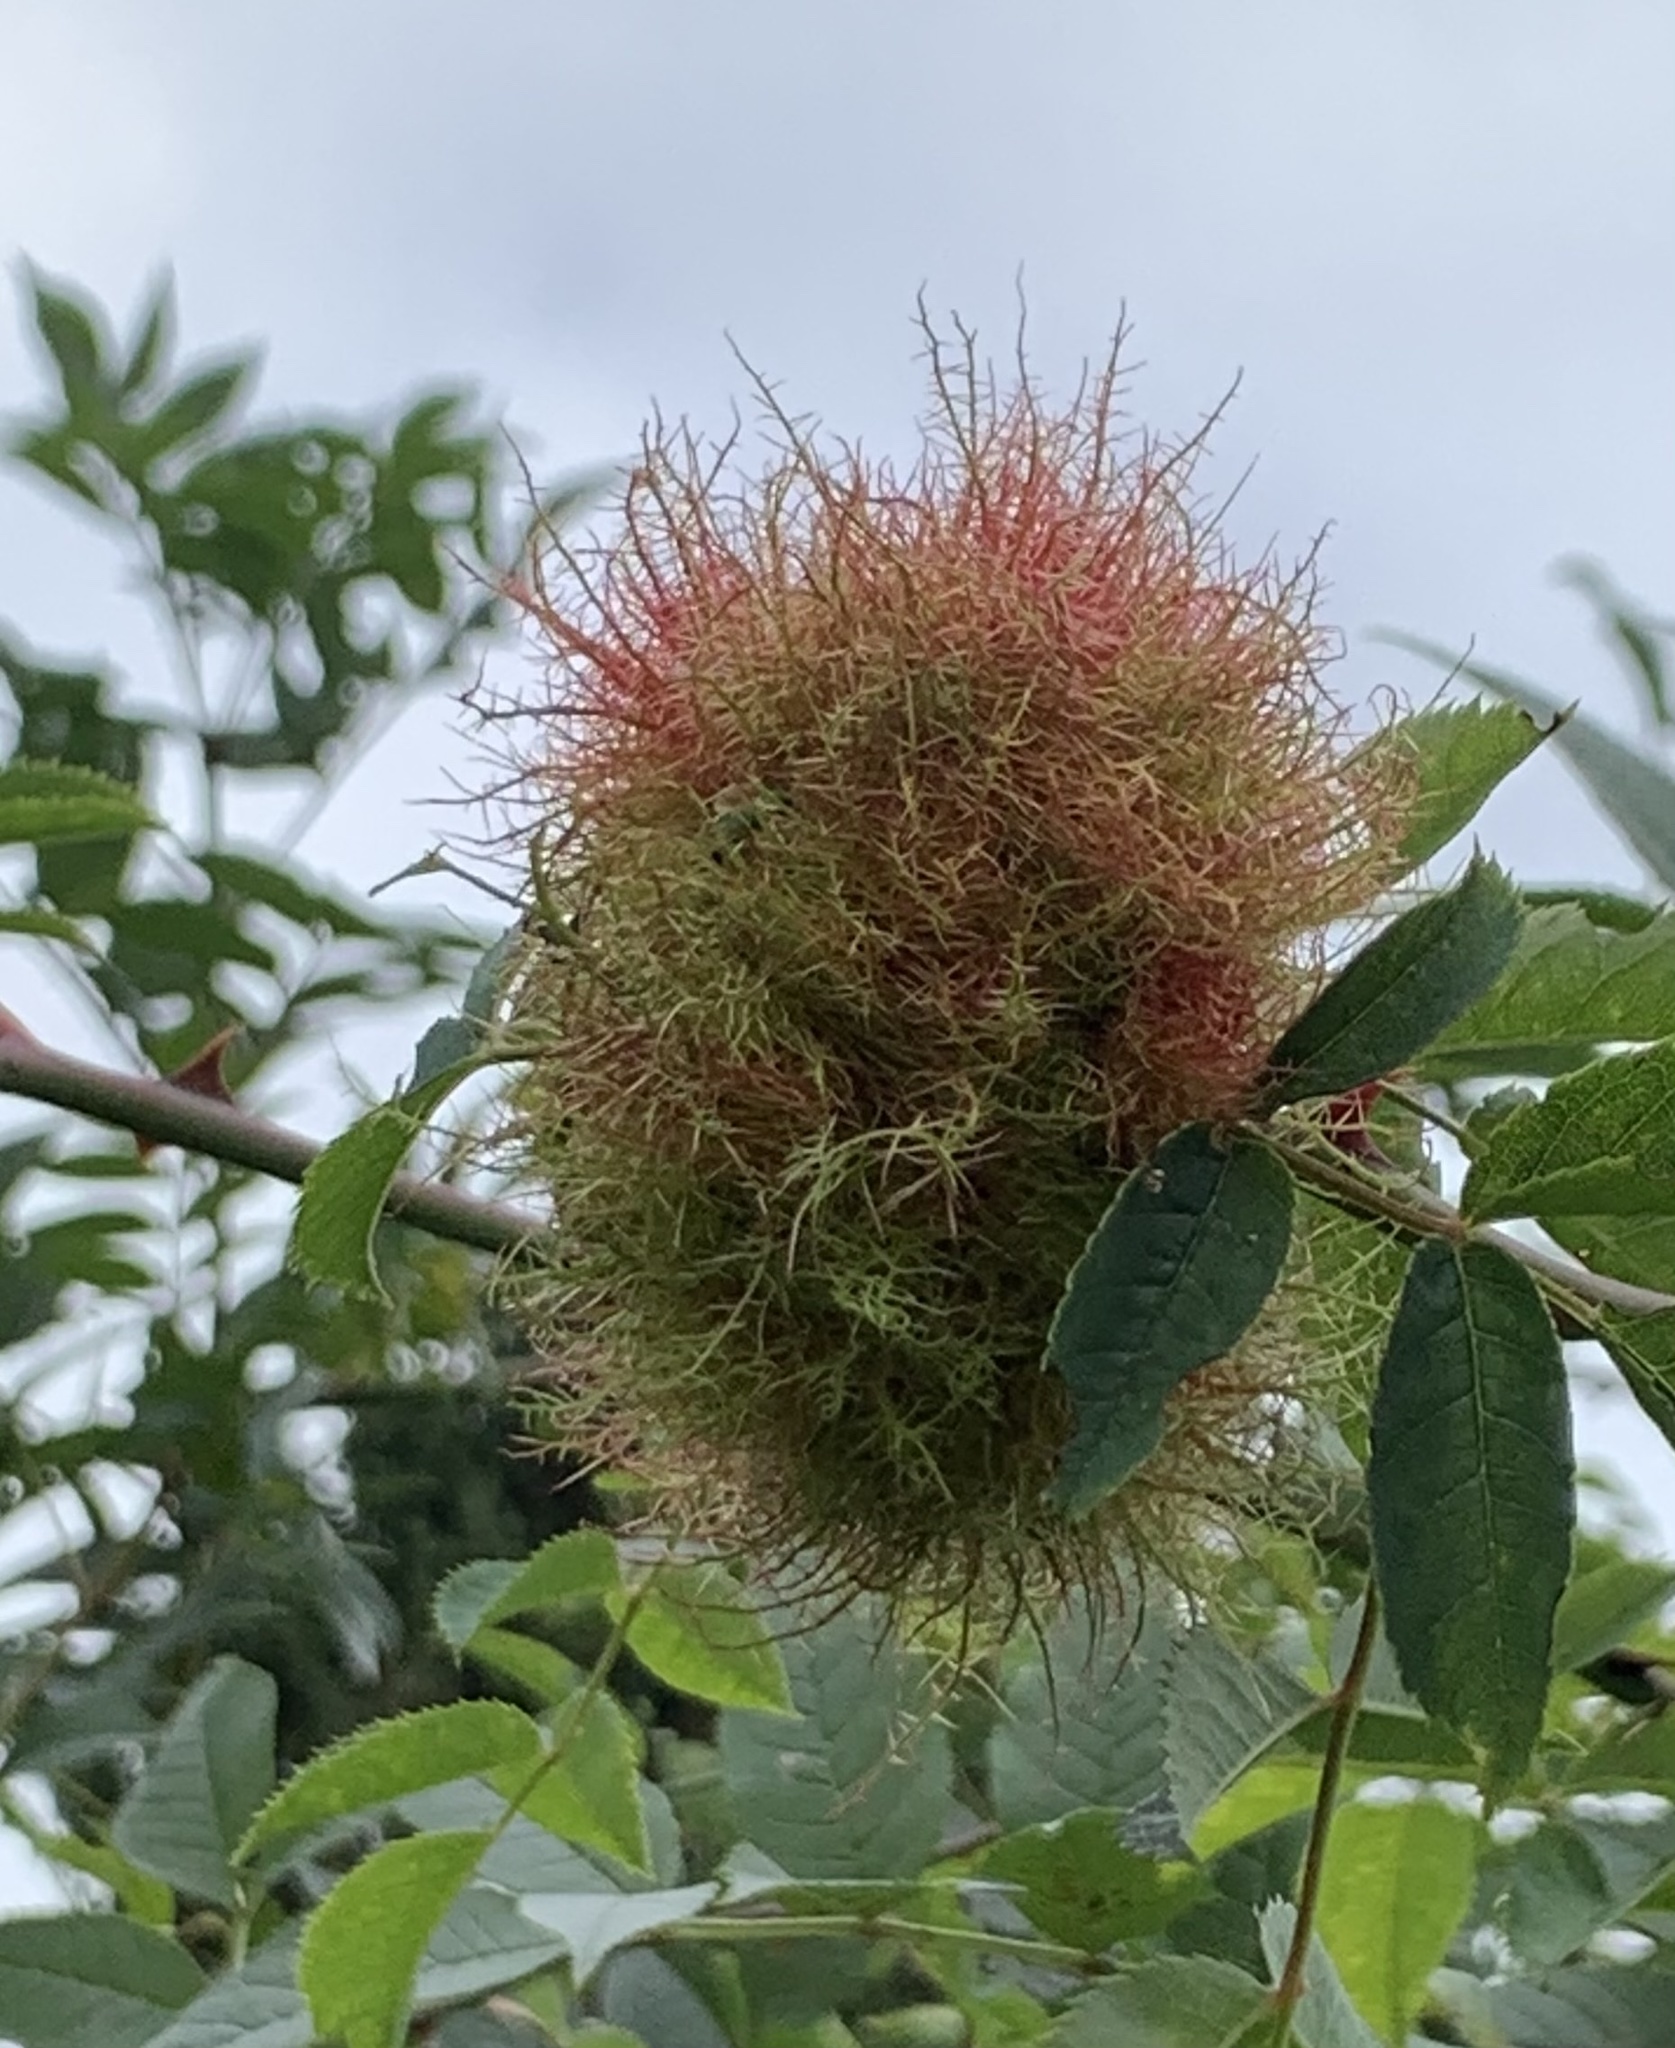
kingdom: Animalia
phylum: Arthropoda
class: Insecta
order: Hymenoptera
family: Cynipidae
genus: Diplolepis
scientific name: Diplolepis rosae
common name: Bedeguar gall
